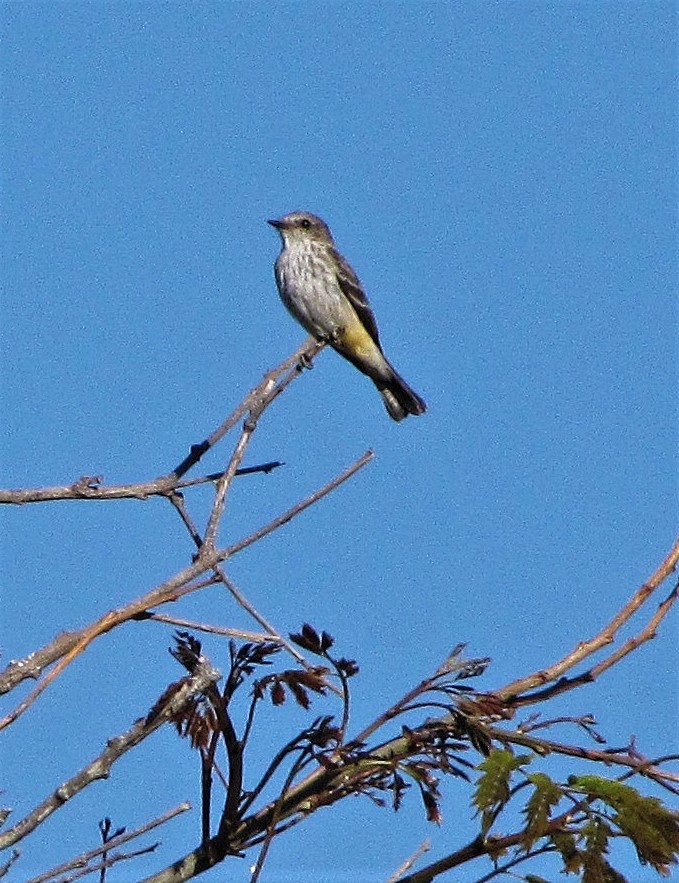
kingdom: Animalia
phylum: Chordata
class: Aves
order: Passeriformes
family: Tyrannidae
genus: Pyrocephalus
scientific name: Pyrocephalus rubinus
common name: Vermilion flycatcher
